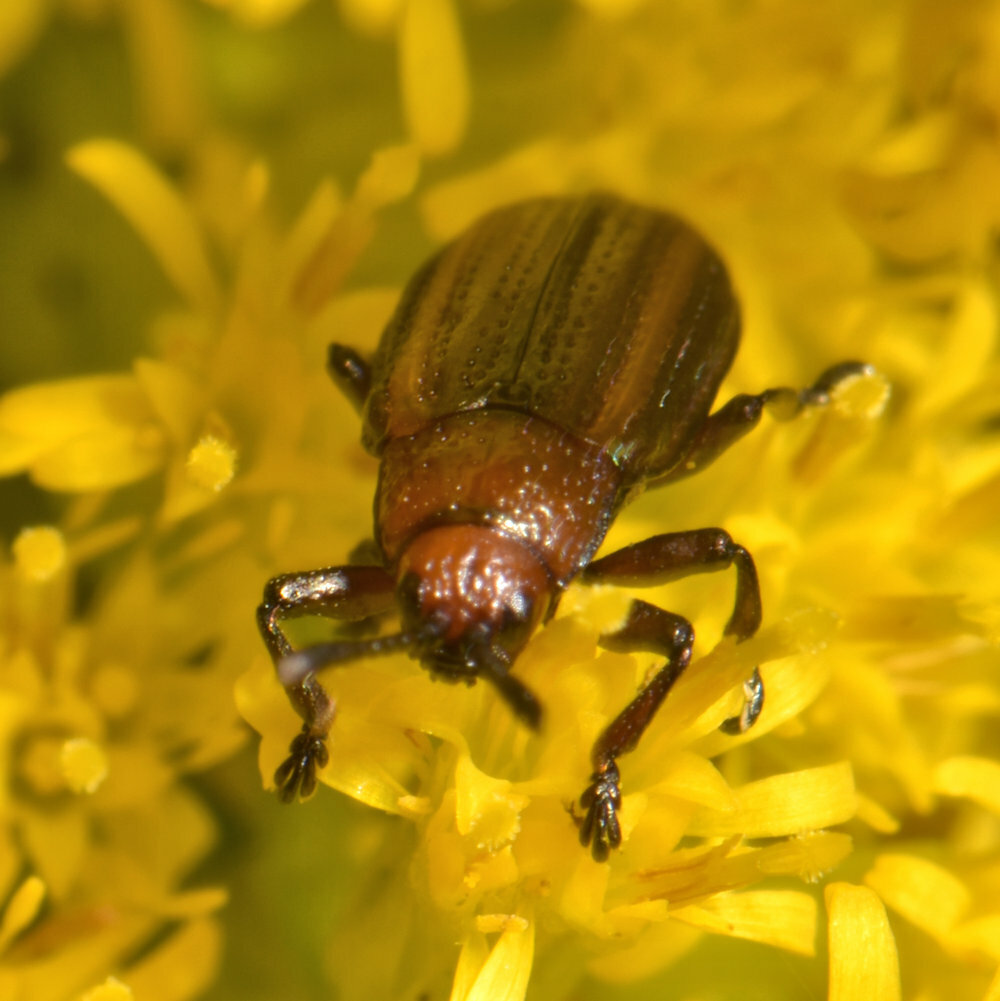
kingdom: Animalia
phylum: Arthropoda
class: Insecta
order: Coleoptera
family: Chrysomelidae
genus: Microrhopala
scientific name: Microrhopala vittata
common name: Goldenrod leaf miner beetle
